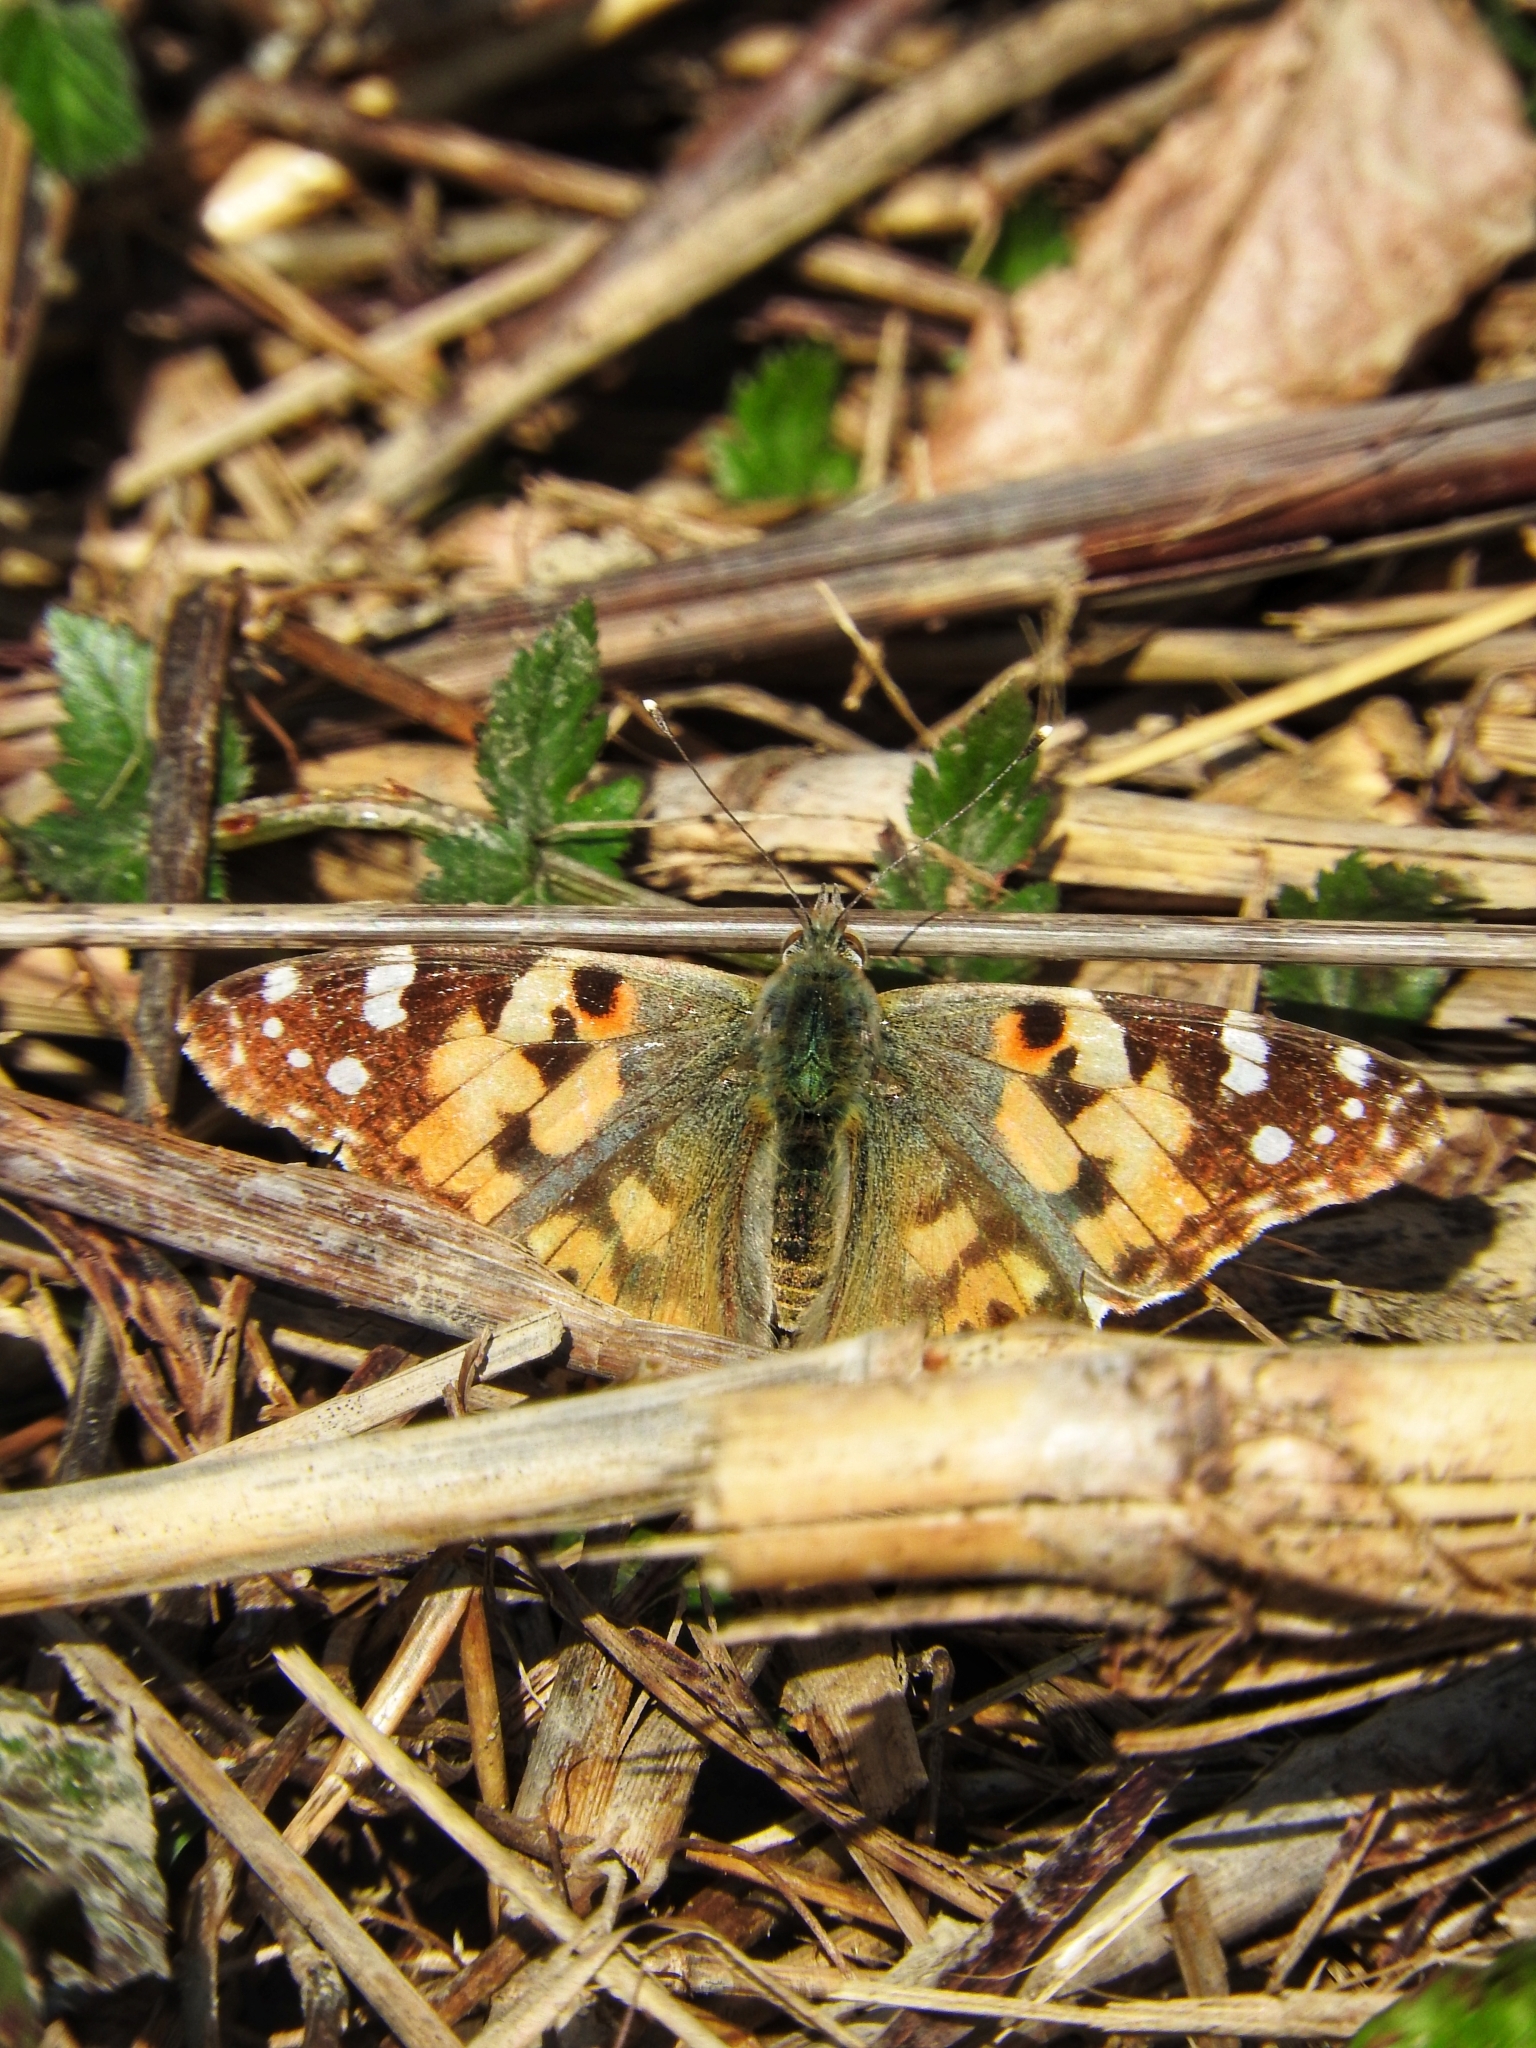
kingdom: Animalia
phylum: Arthropoda
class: Insecta
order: Lepidoptera
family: Nymphalidae
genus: Vanessa
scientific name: Vanessa cardui
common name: Painted lady
